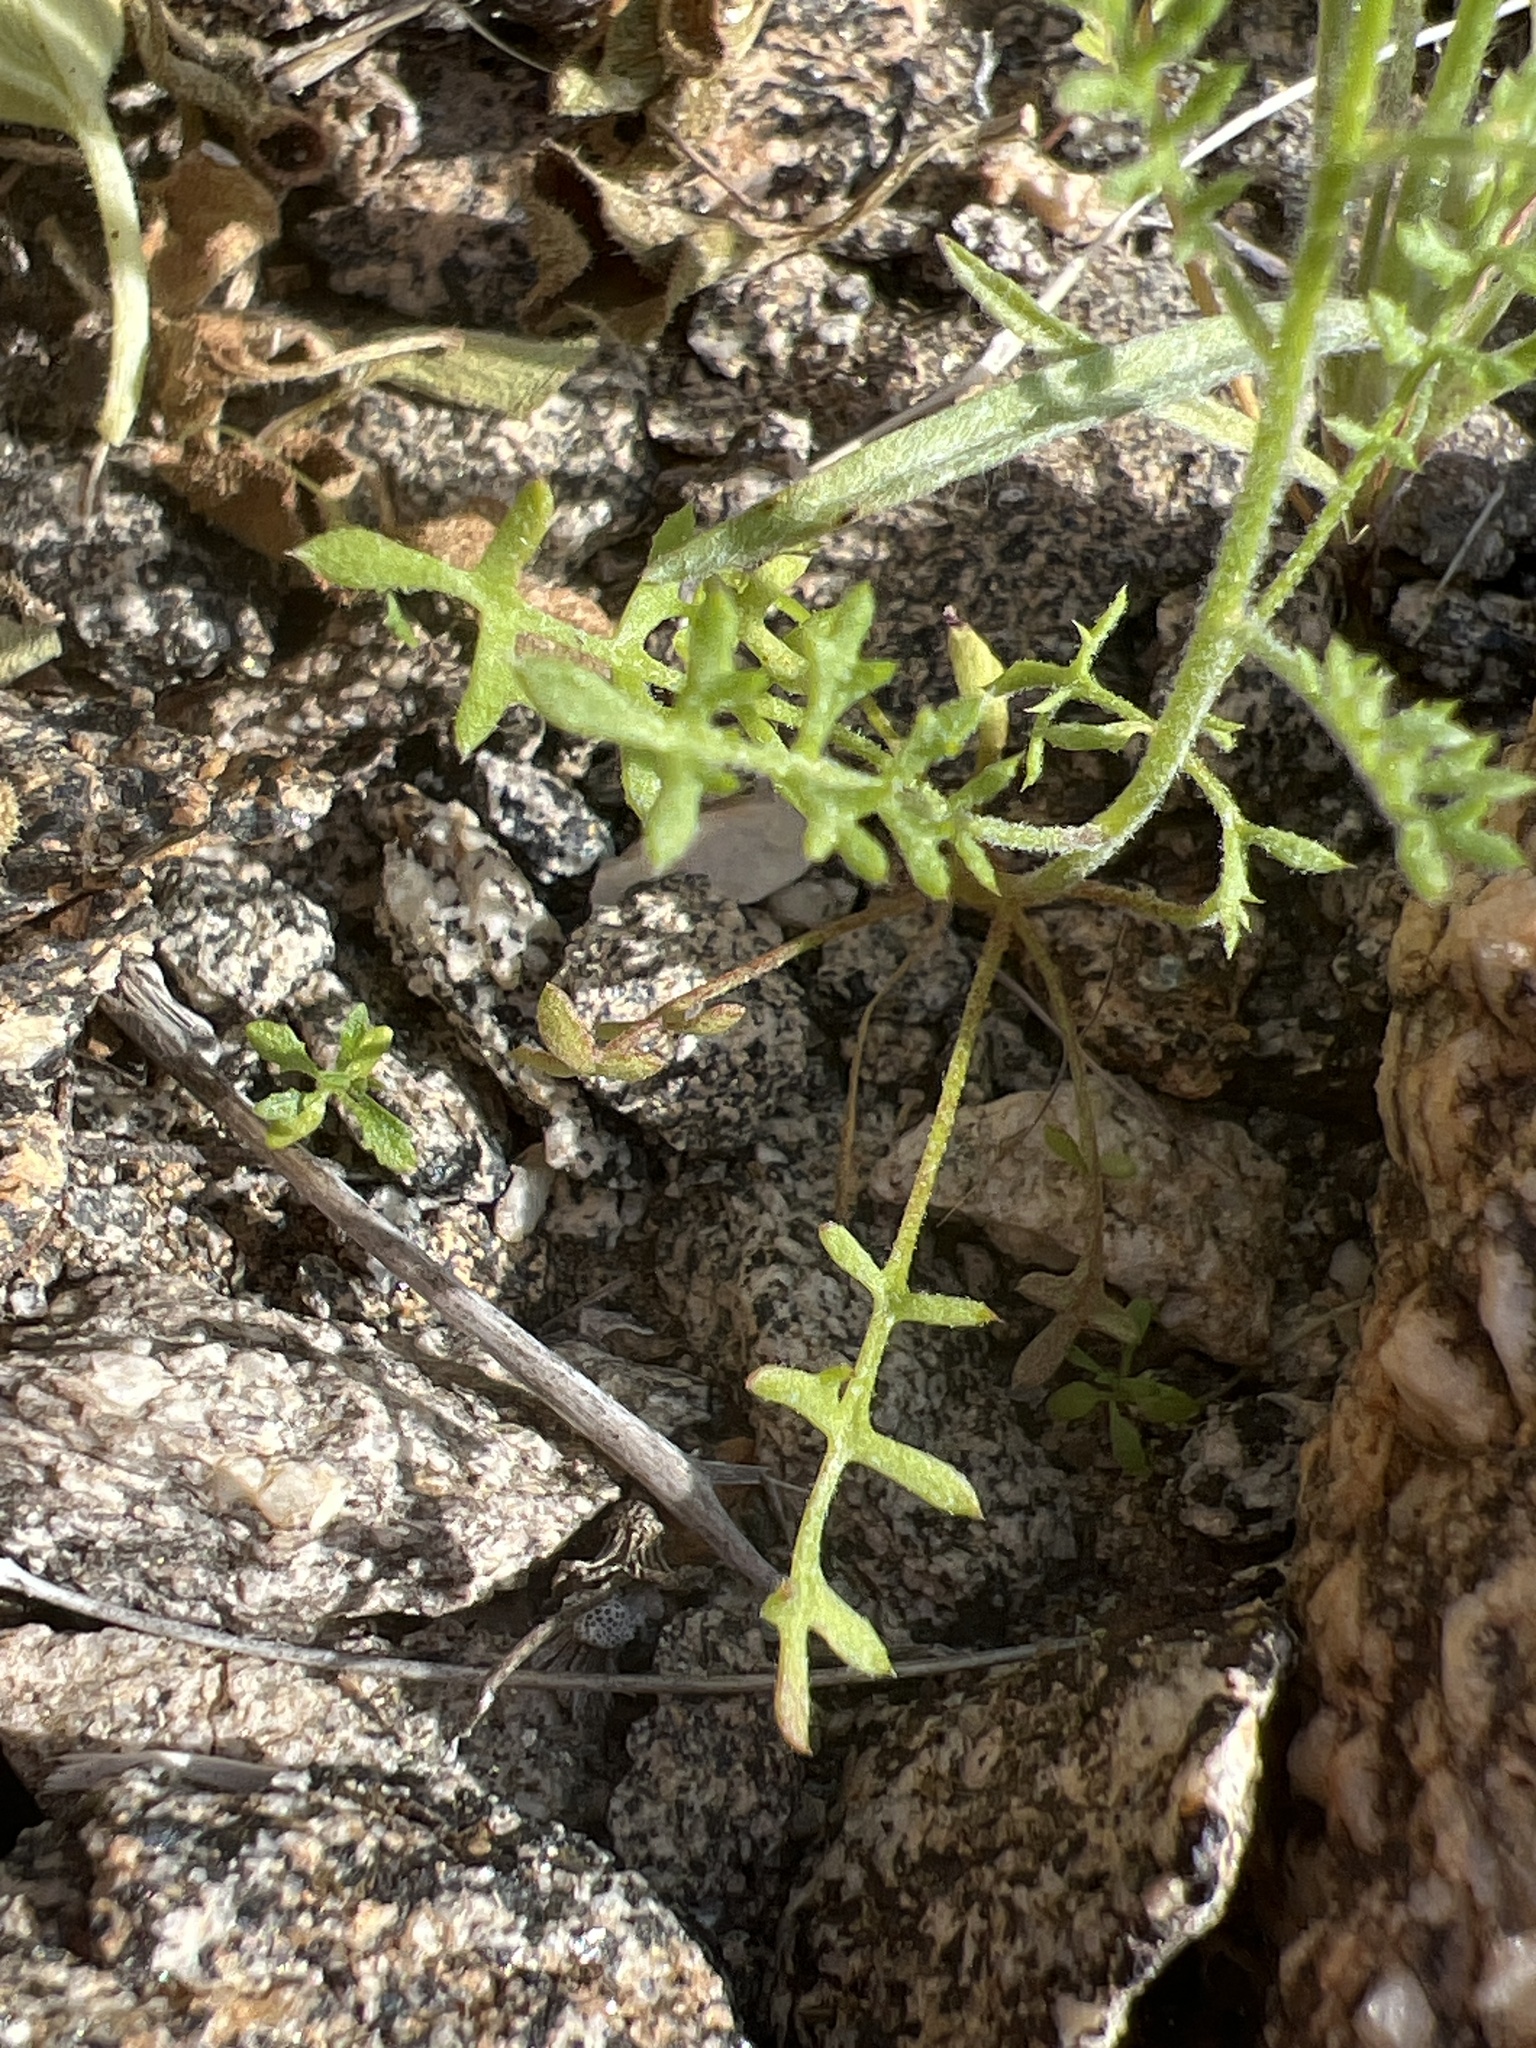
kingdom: Plantae
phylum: Tracheophyta
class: Magnoliopsida
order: Ericales
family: Polemoniaceae
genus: Gilia
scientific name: Gilia stellata
